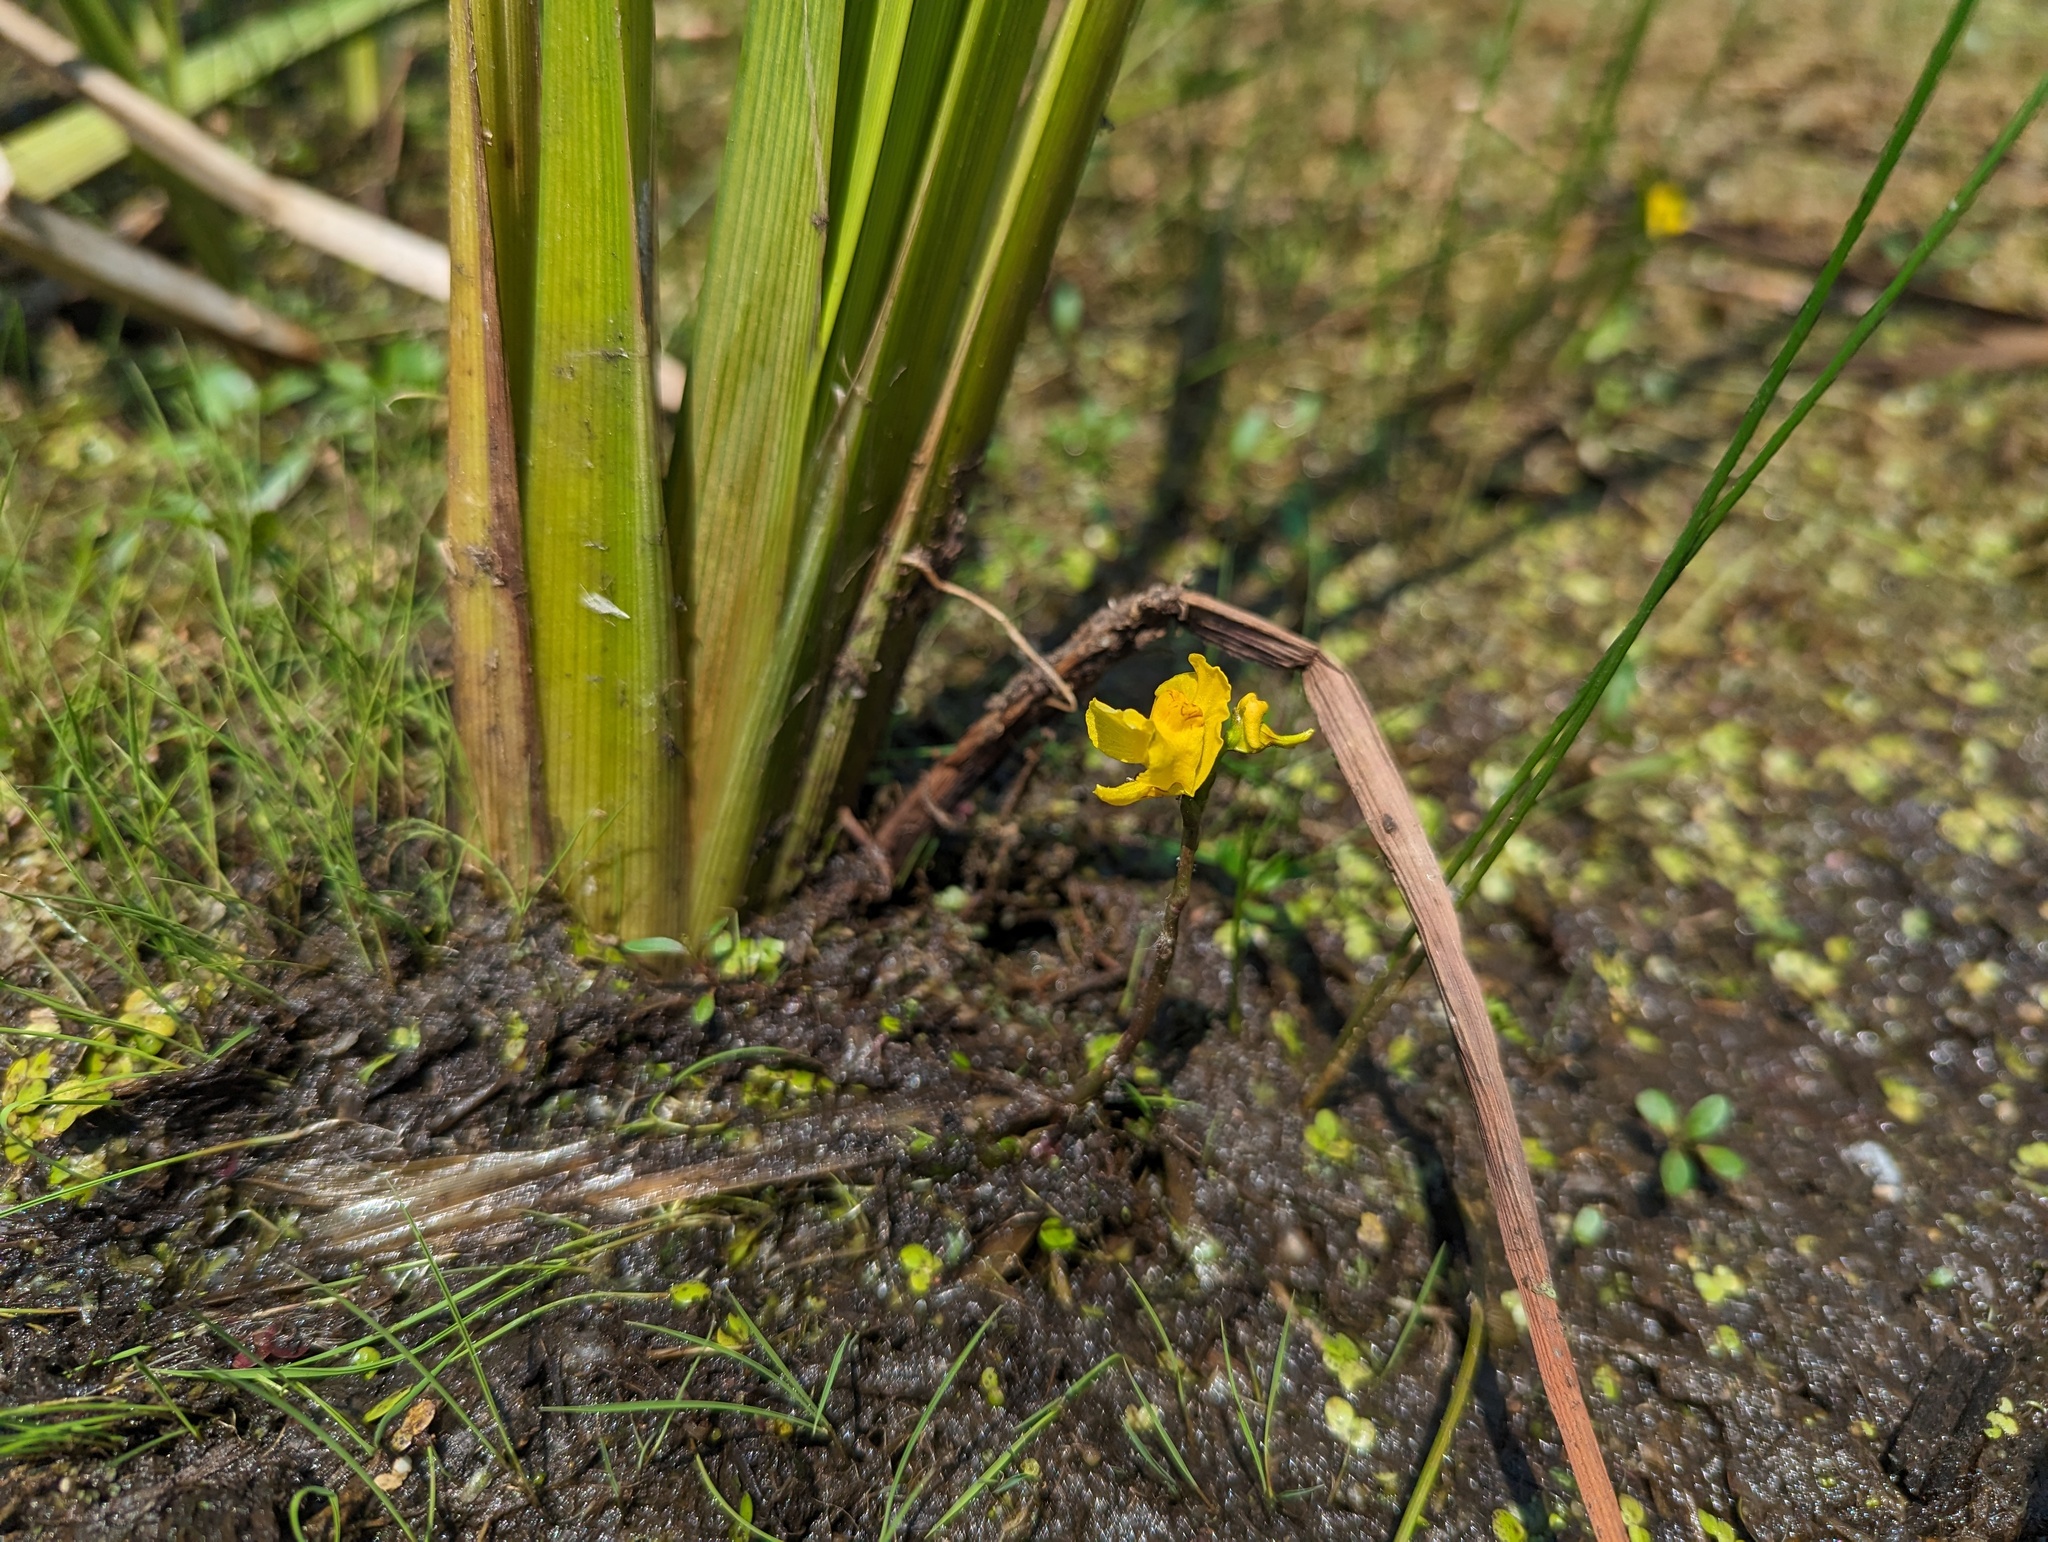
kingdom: Plantae
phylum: Tracheophyta
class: Magnoliopsida
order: Lamiales
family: Lentibulariaceae
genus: Utricularia
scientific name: Utricularia macrorhiza
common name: Common bladderwort
